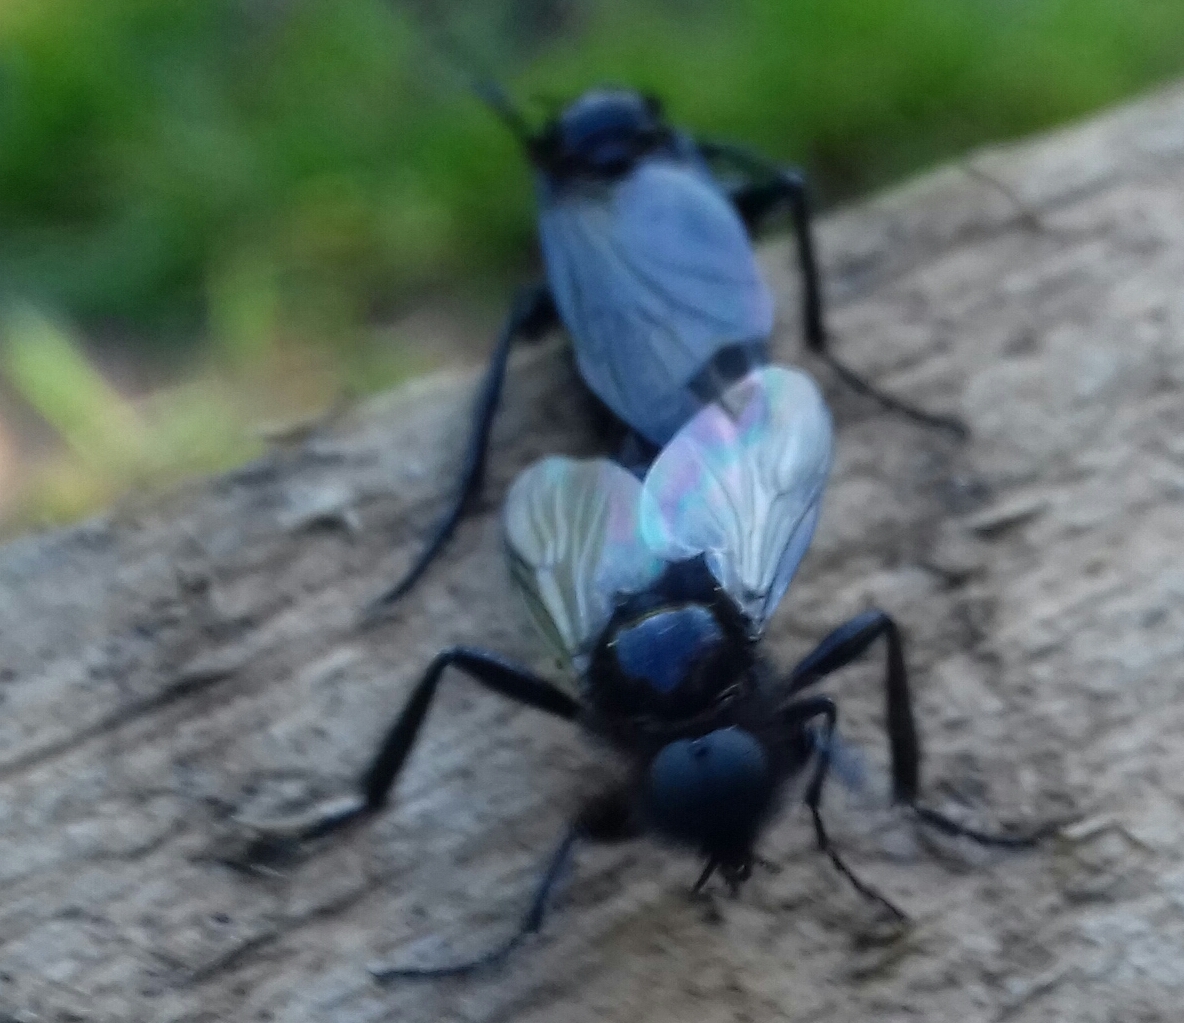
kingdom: Animalia
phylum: Arthropoda
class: Insecta
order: Diptera
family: Bibionidae
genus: Bibio
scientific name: Bibio marci
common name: St marks fly
